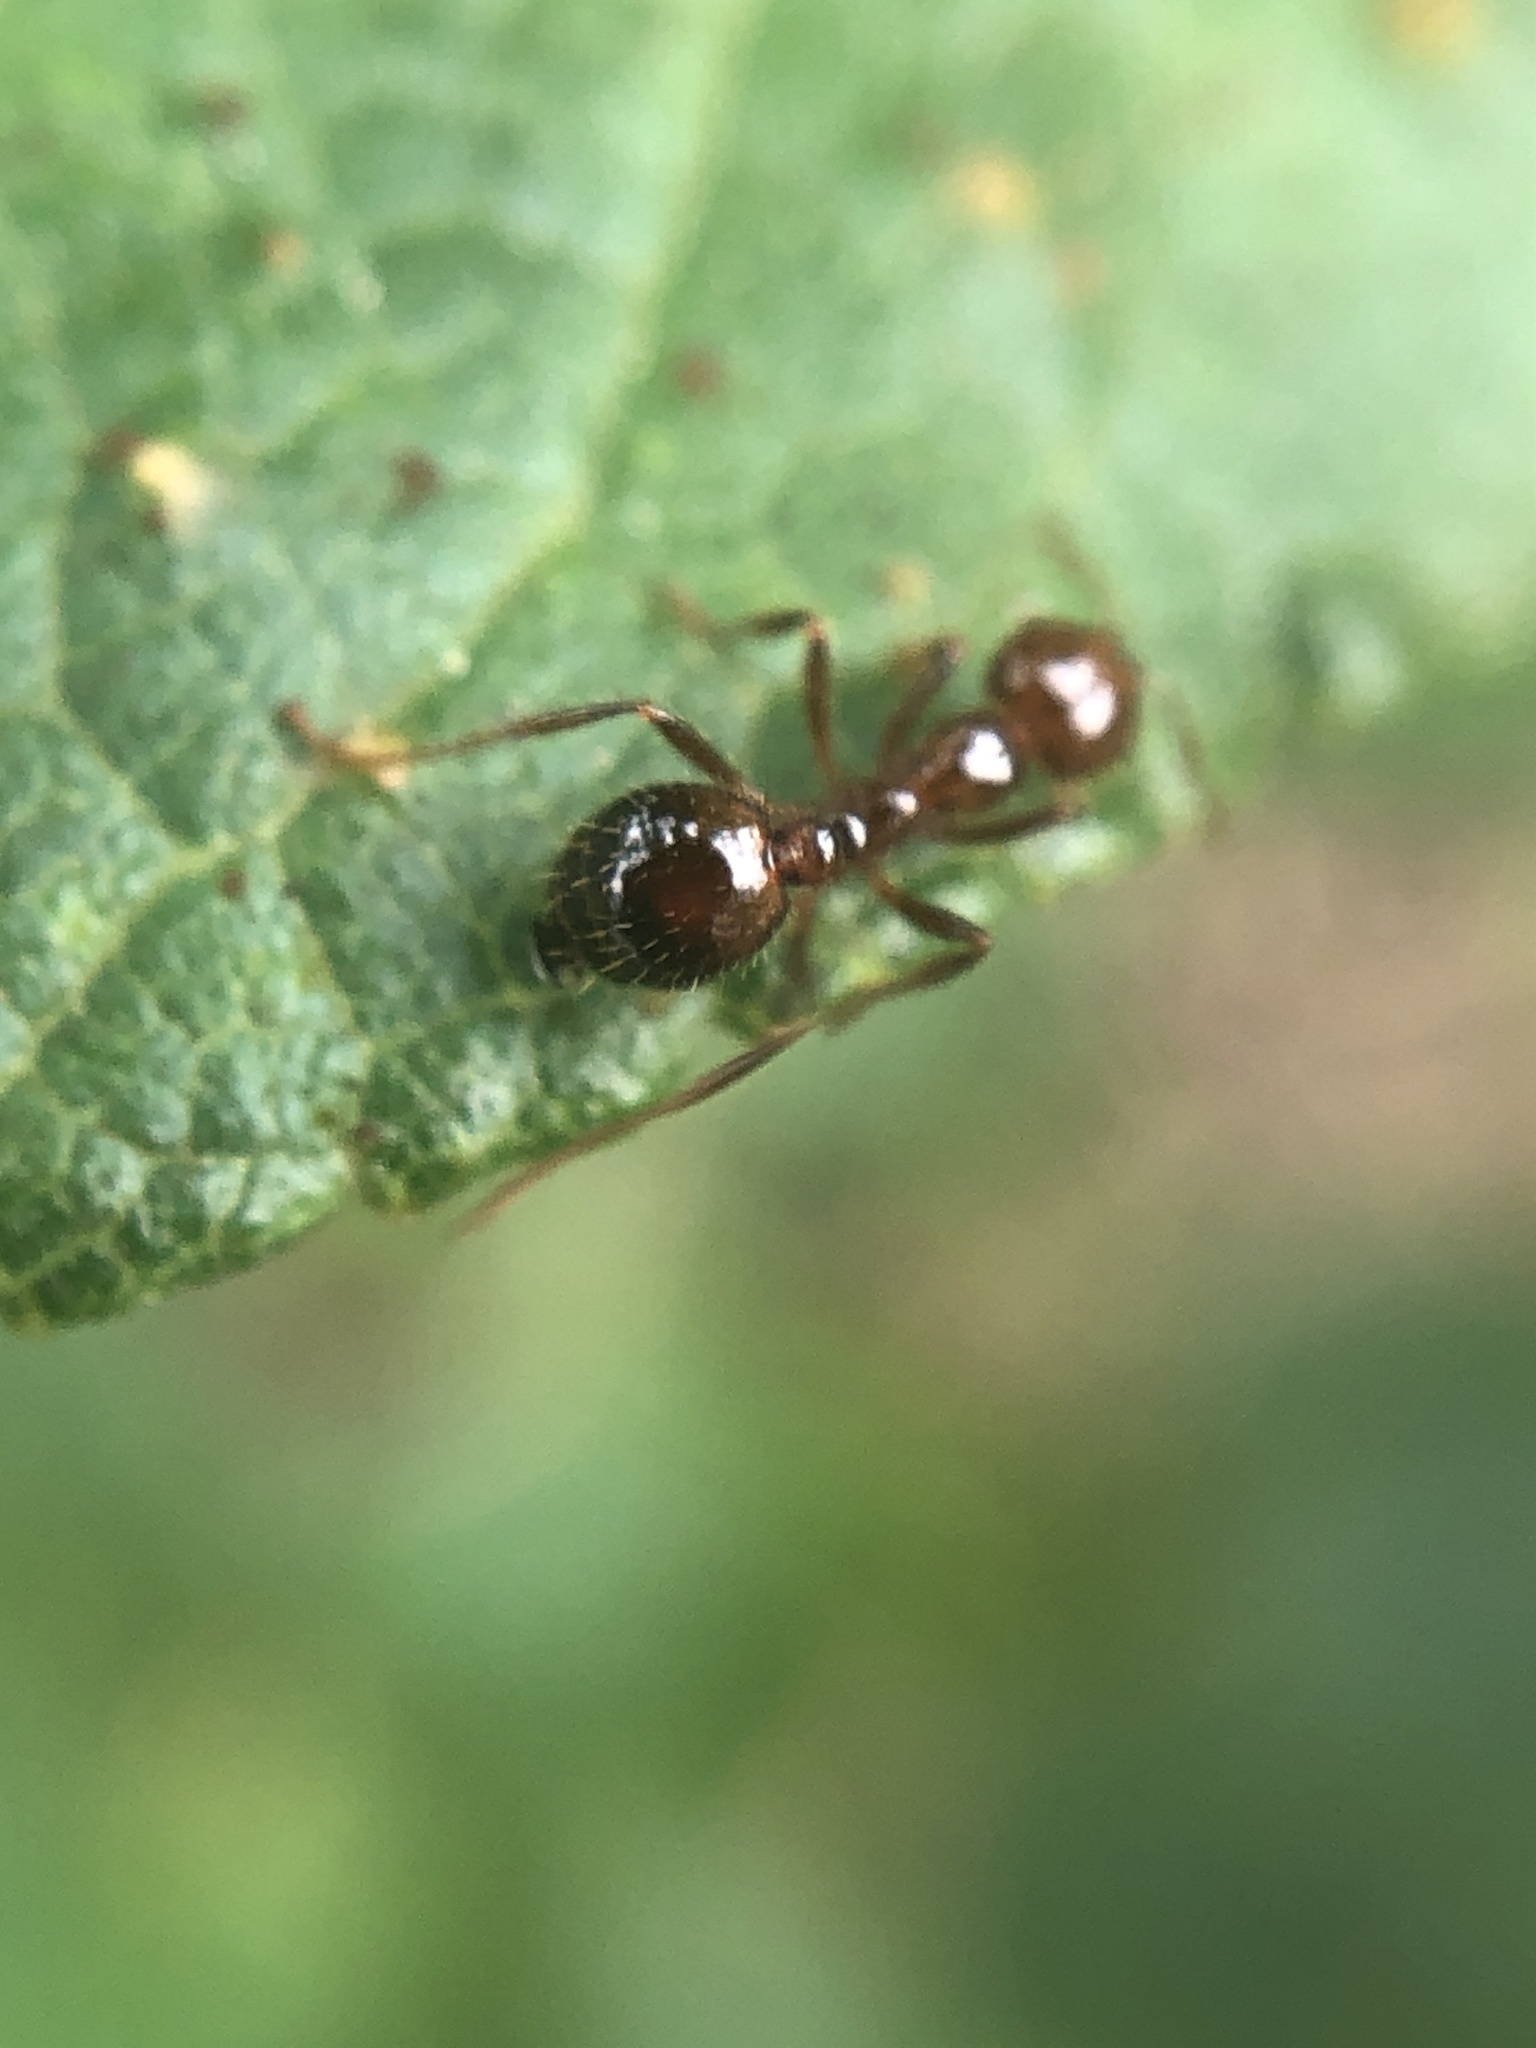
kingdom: Animalia
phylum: Arthropoda
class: Insecta
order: Hymenoptera
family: Formicidae
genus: Solenopsis
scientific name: Solenopsis invicta
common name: Red imported fire ant
